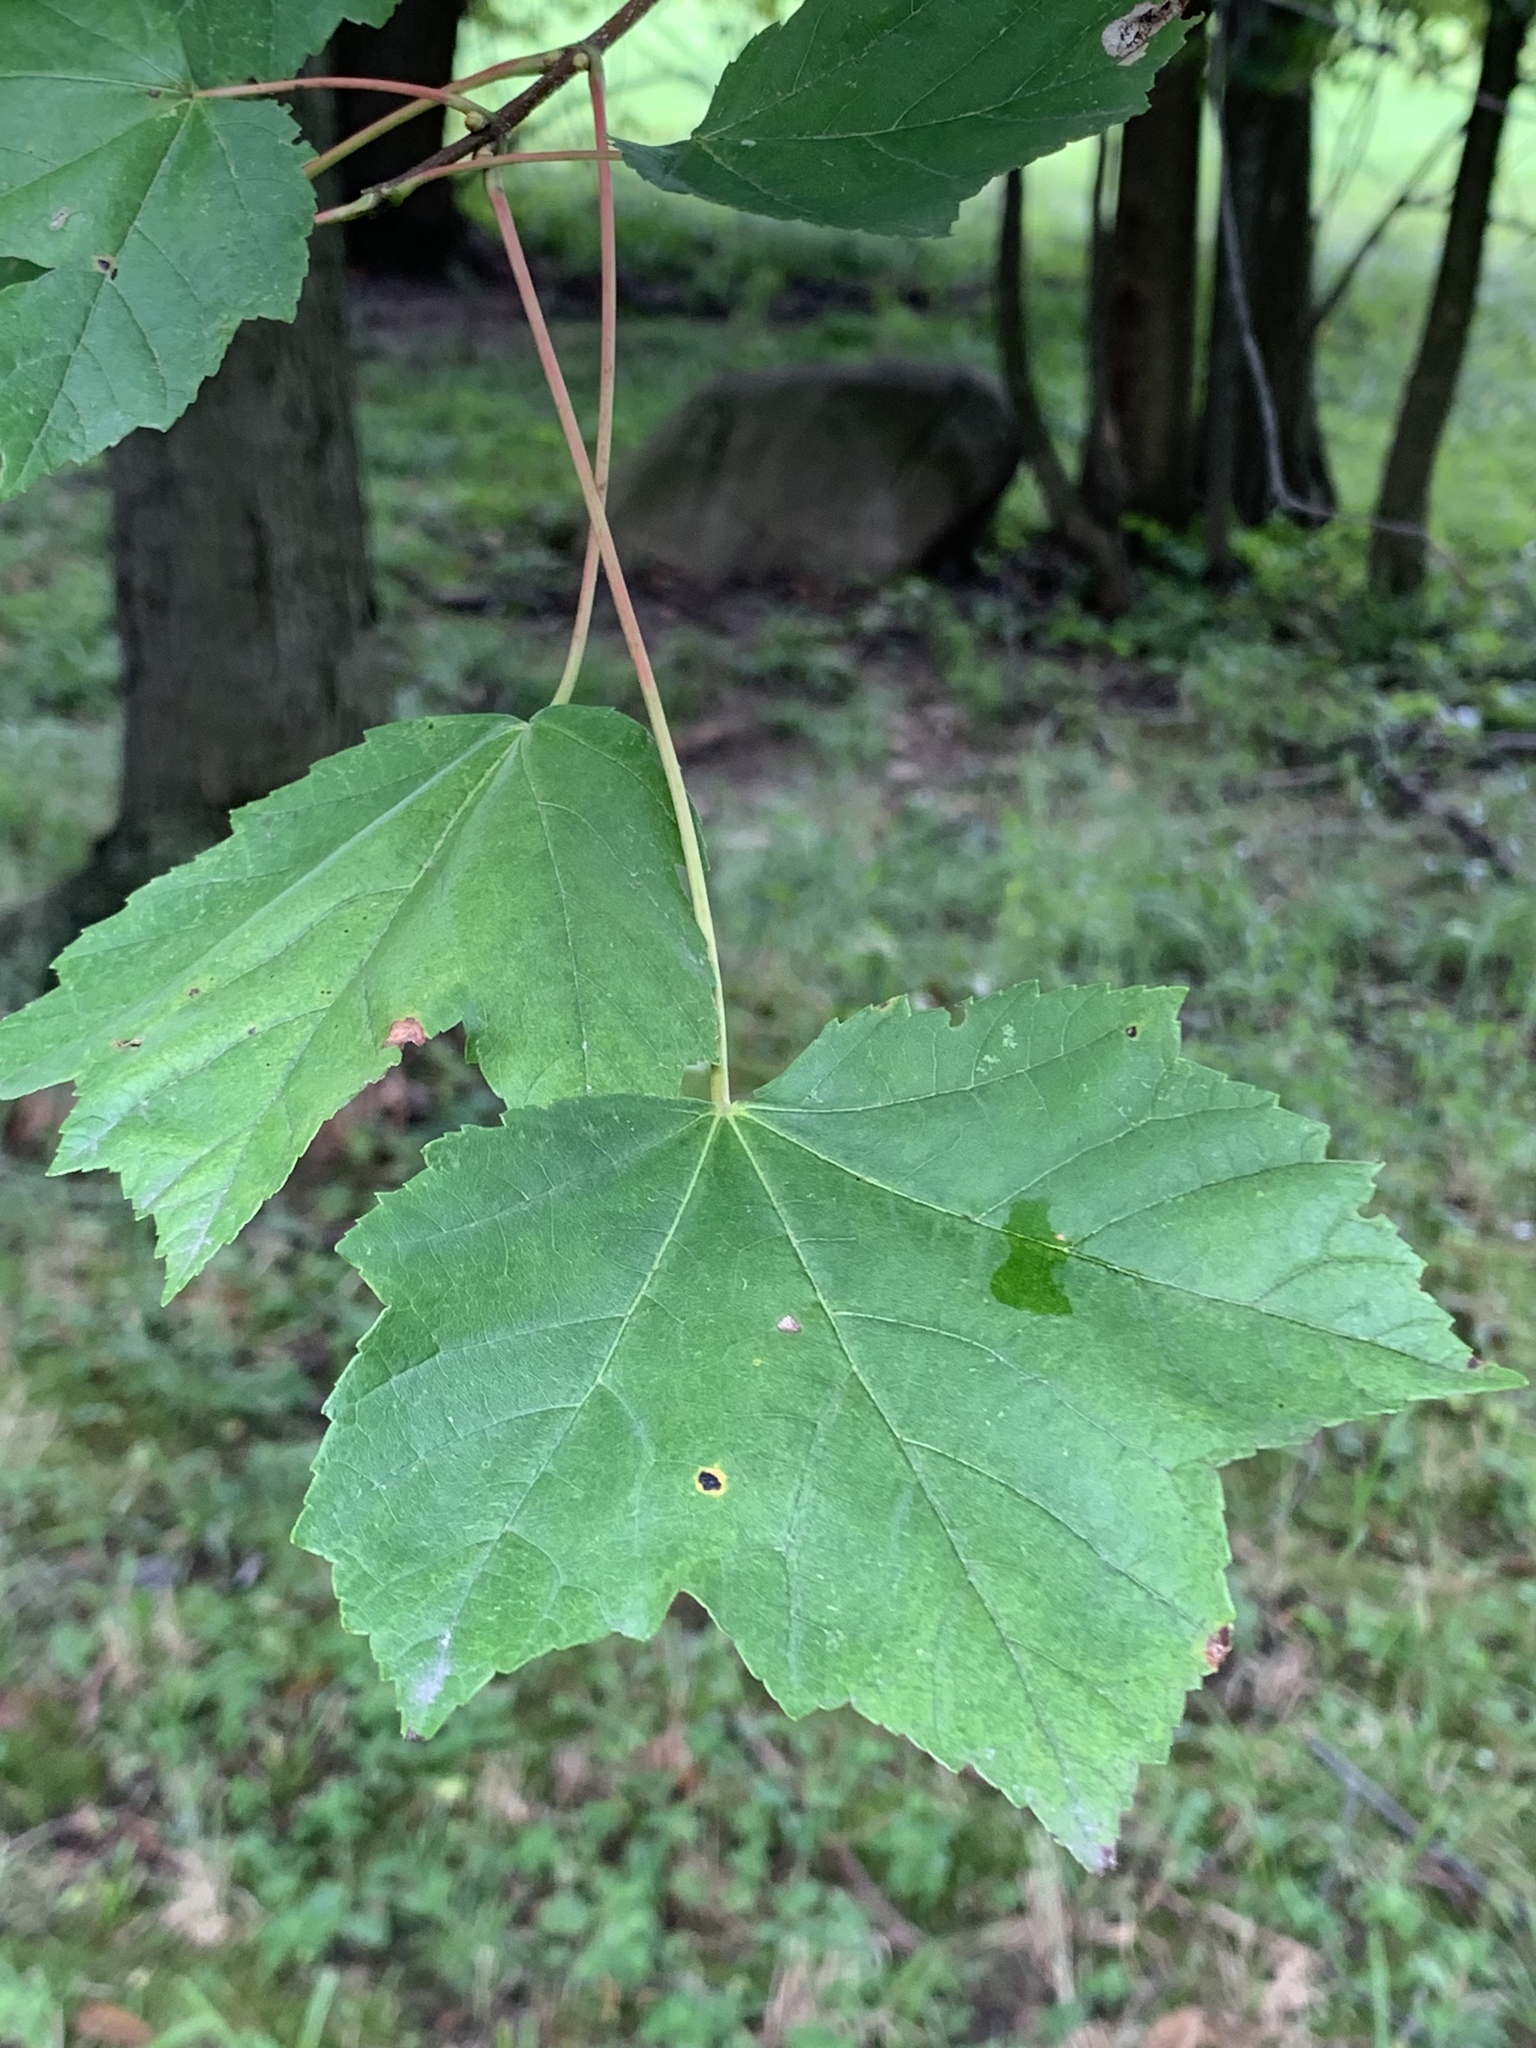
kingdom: Plantae
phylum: Tracheophyta
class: Magnoliopsida
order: Sapindales
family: Sapindaceae
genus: Acer
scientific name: Acer rubrum
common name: Red maple
